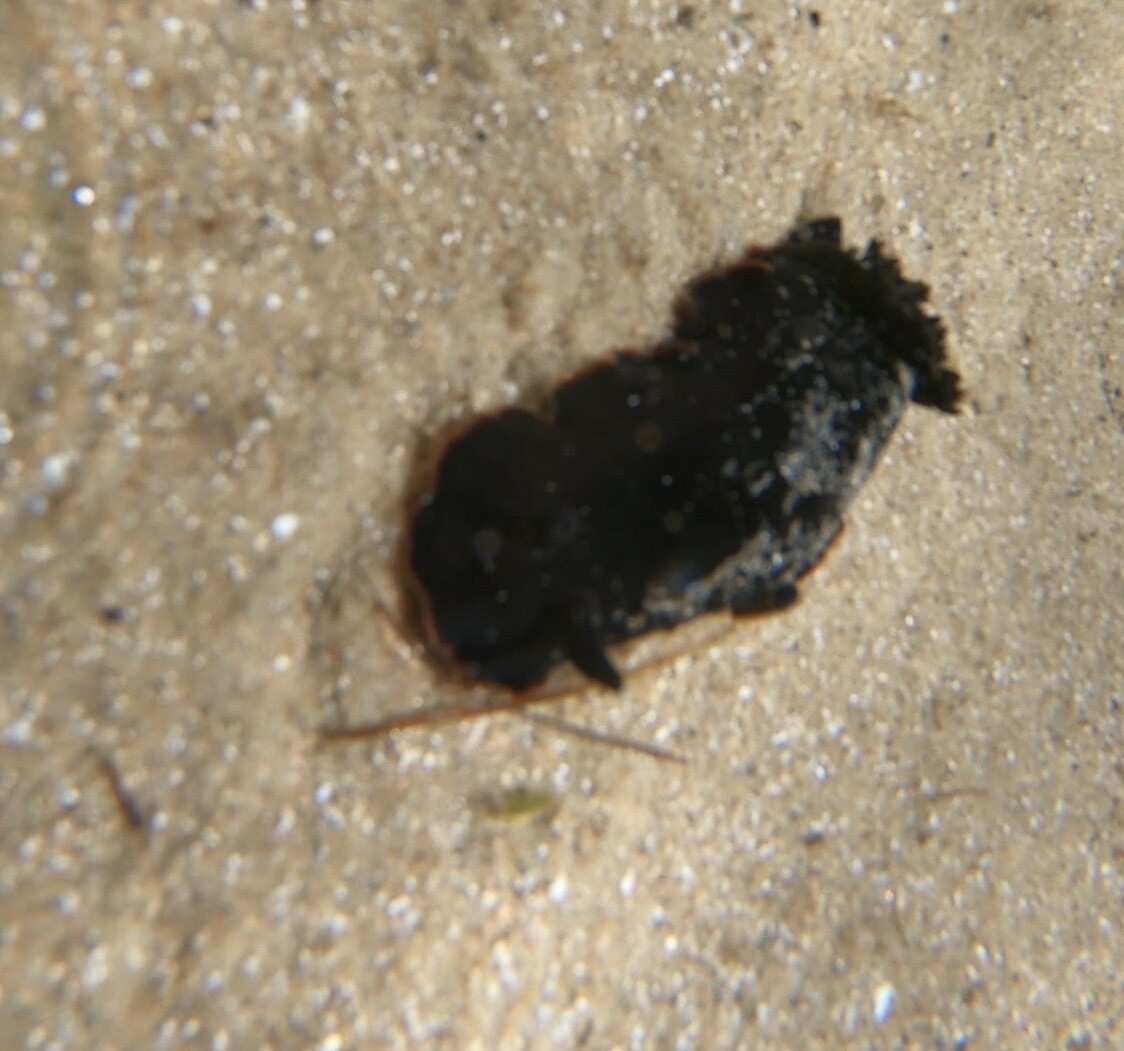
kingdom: Animalia
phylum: Mollusca
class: Gastropoda
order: Nudibranchia
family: Dendrodorididae
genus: Dendrodoris
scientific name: Dendrodoris arborescens
